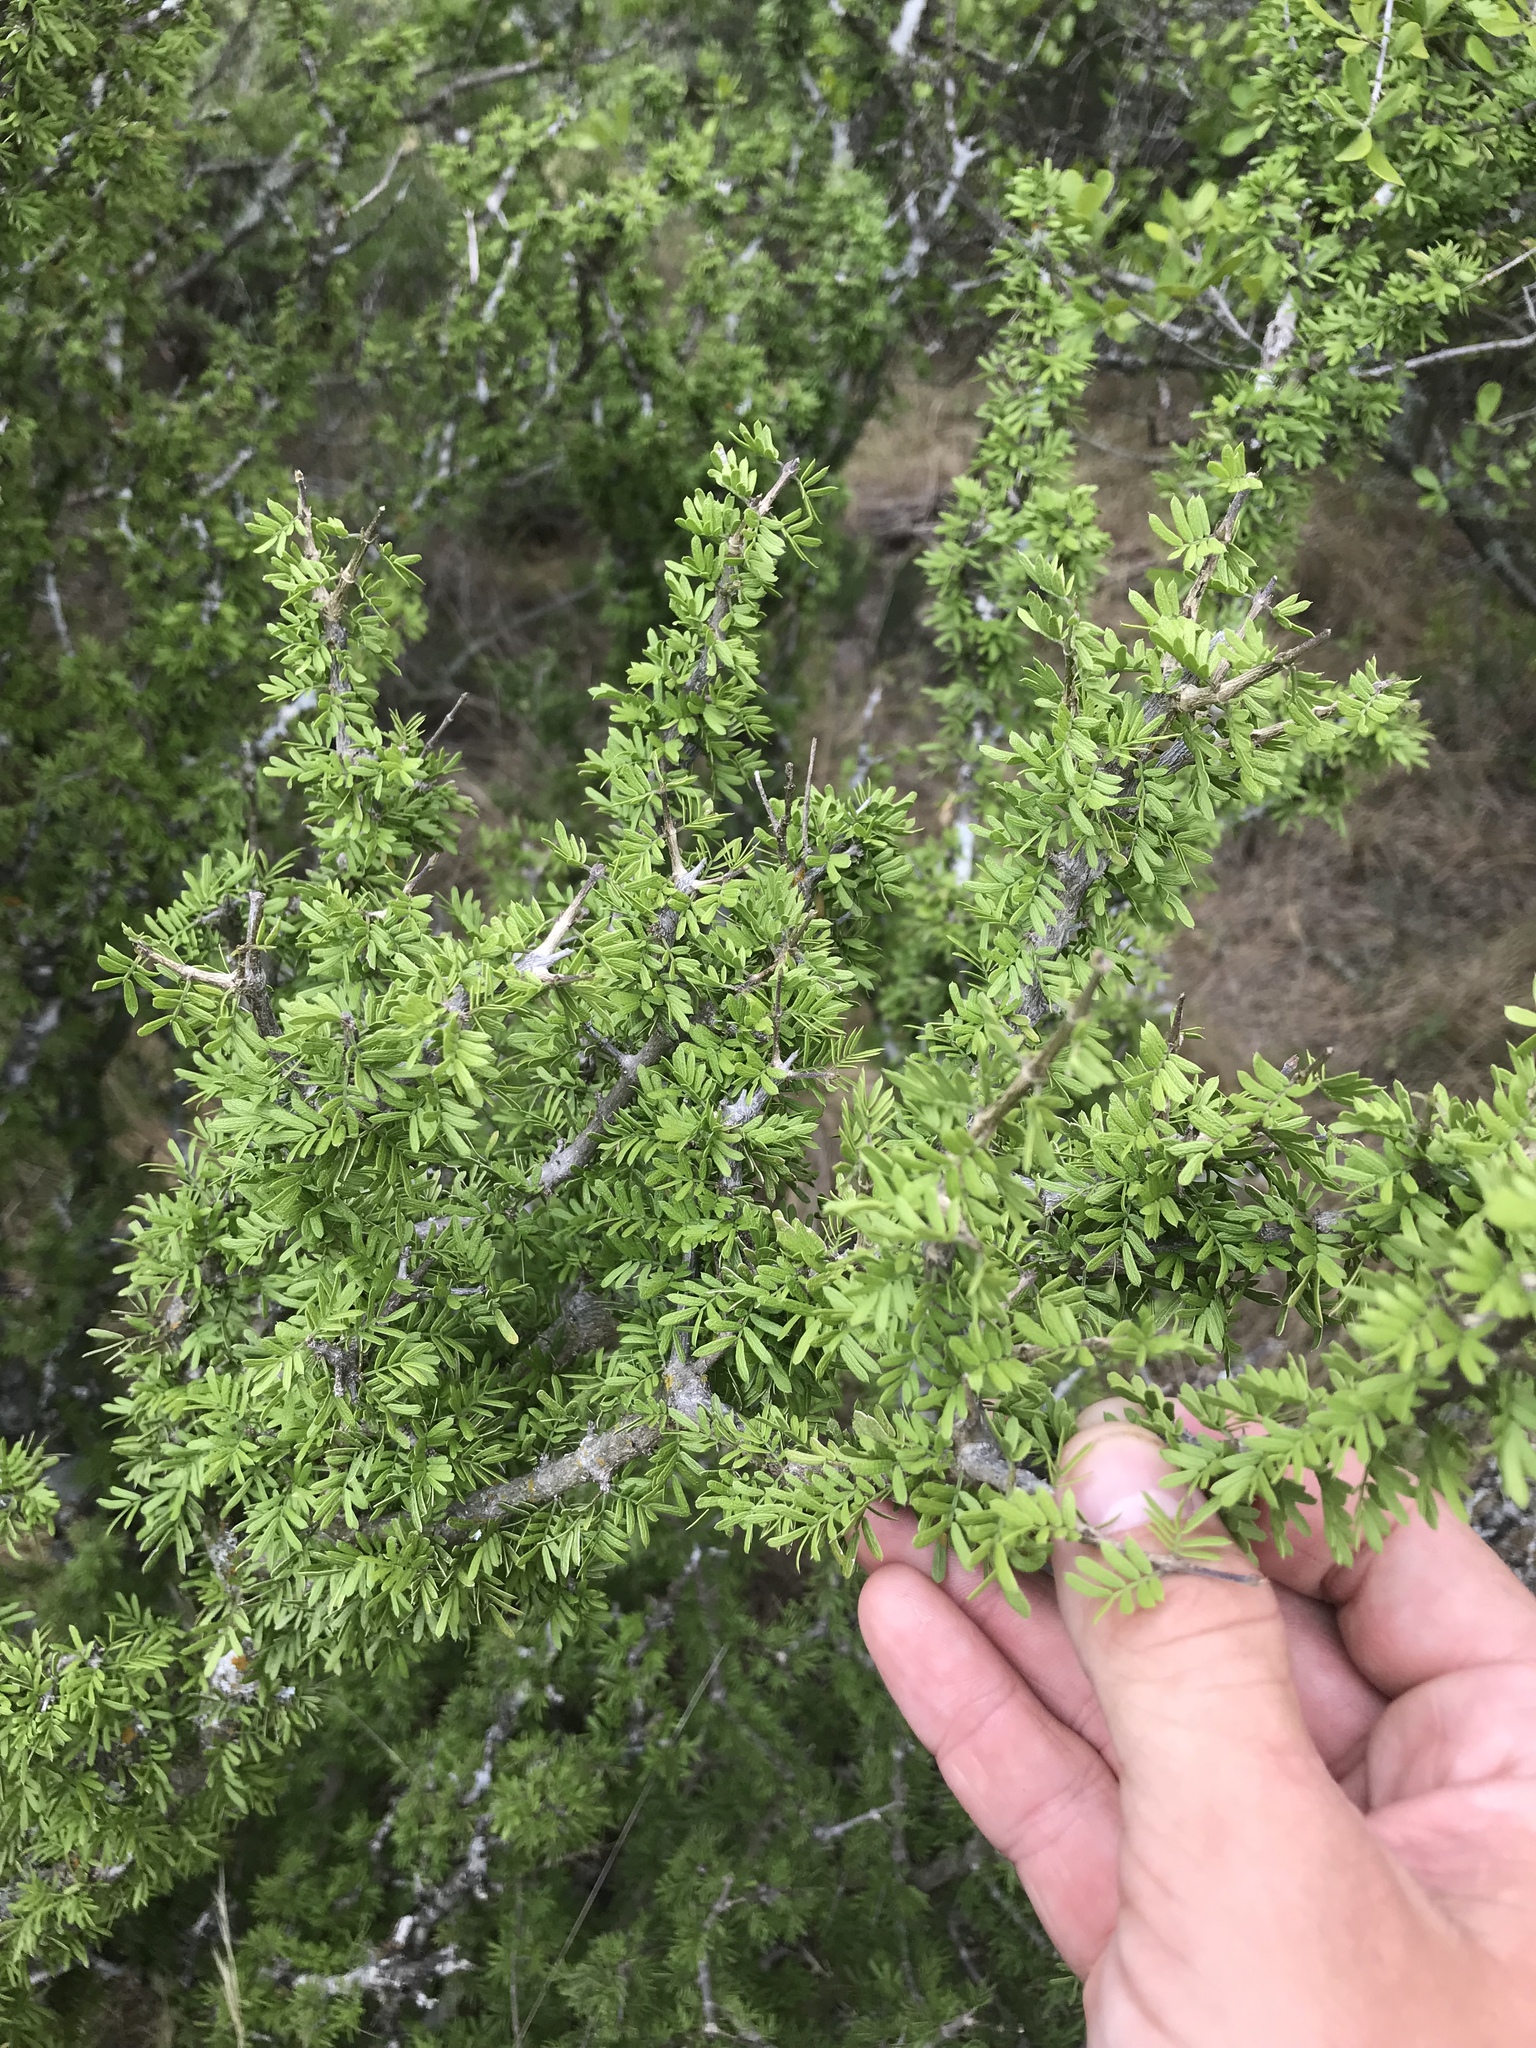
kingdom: Plantae
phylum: Tracheophyta
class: Magnoliopsida
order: Zygophyllales
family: Zygophyllaceae
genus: Porlieria
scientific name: Porlieria angustifolia
